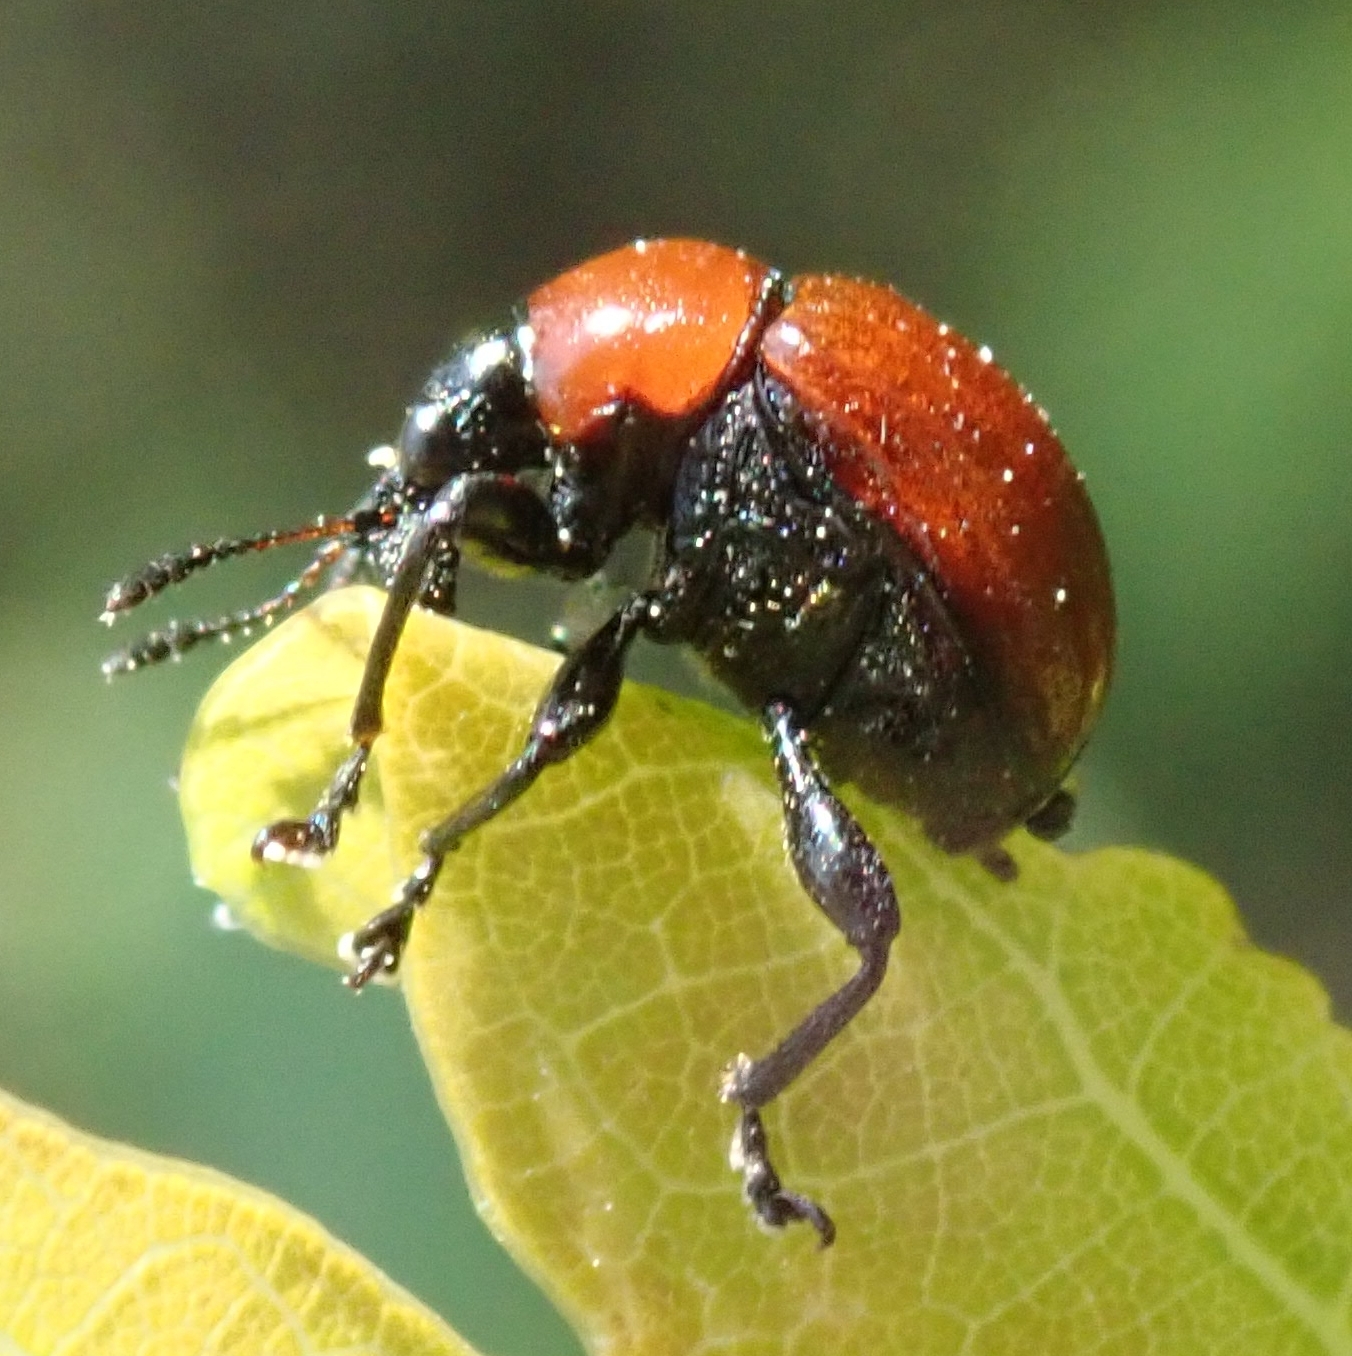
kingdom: Animalia
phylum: Arthropoda
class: Insecta
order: Coleoptera
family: Attelabidae
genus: Attelabus
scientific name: Attelabus nitens
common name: Oak leaf-roller
